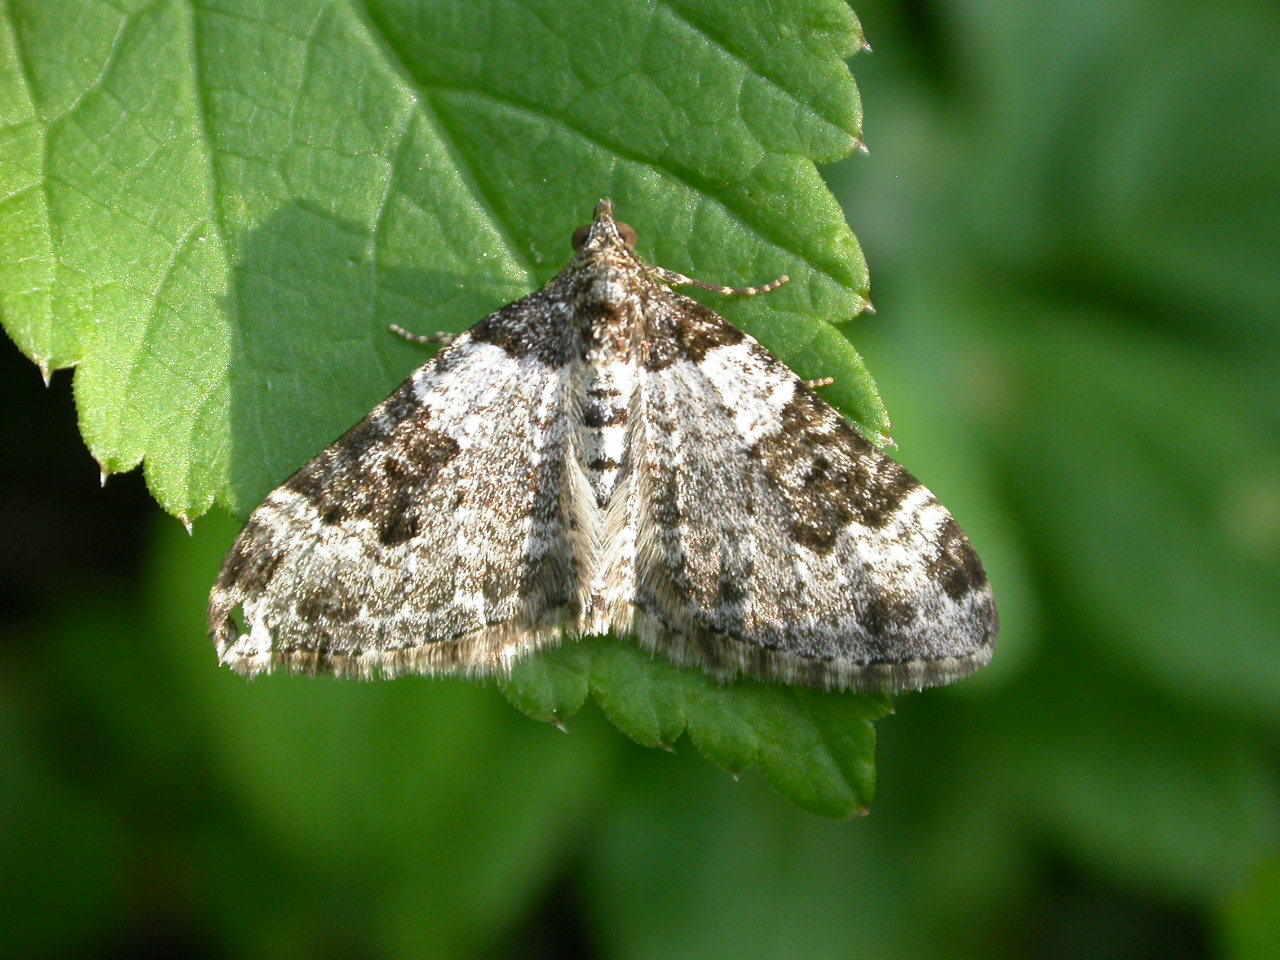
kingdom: Animalia
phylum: Arthropoda
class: Insecta
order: Lepidoptera
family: Geometridae
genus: Xanthorhoe
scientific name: Xanthorhoe fluctuata
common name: Garden carpet
